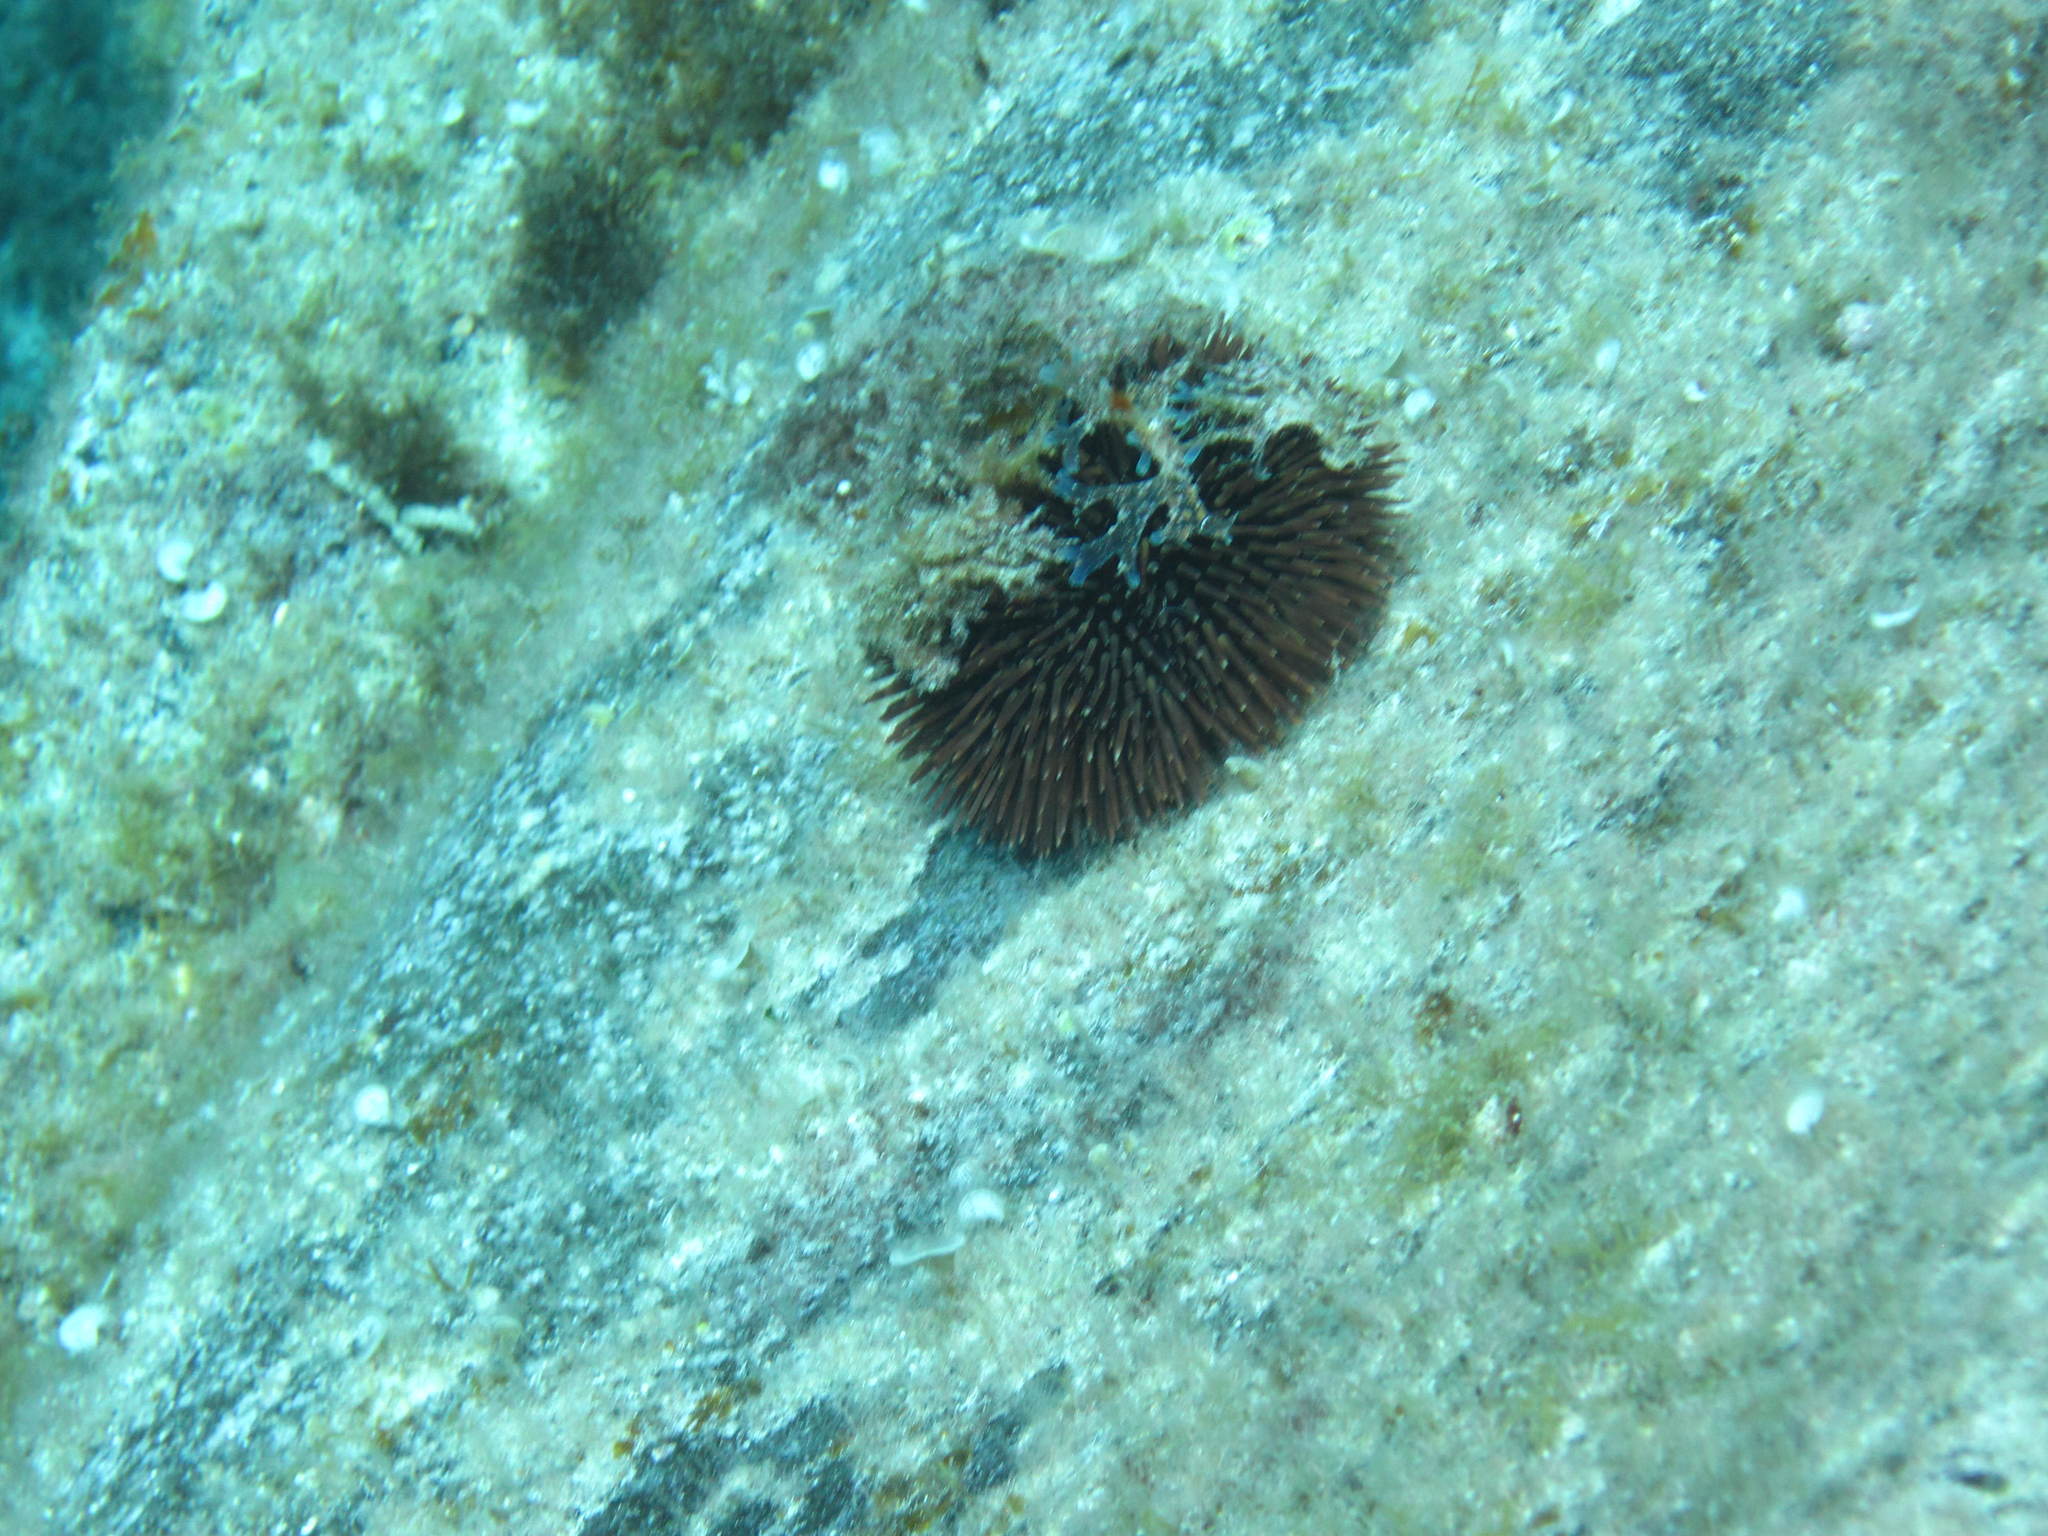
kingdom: Animalia
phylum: Echinodermata
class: Echinoidea
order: Camarodonta
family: Toxopneustidae
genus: Sphaerechinus
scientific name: Sphaerechinus granularis
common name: Violet sea urchin
